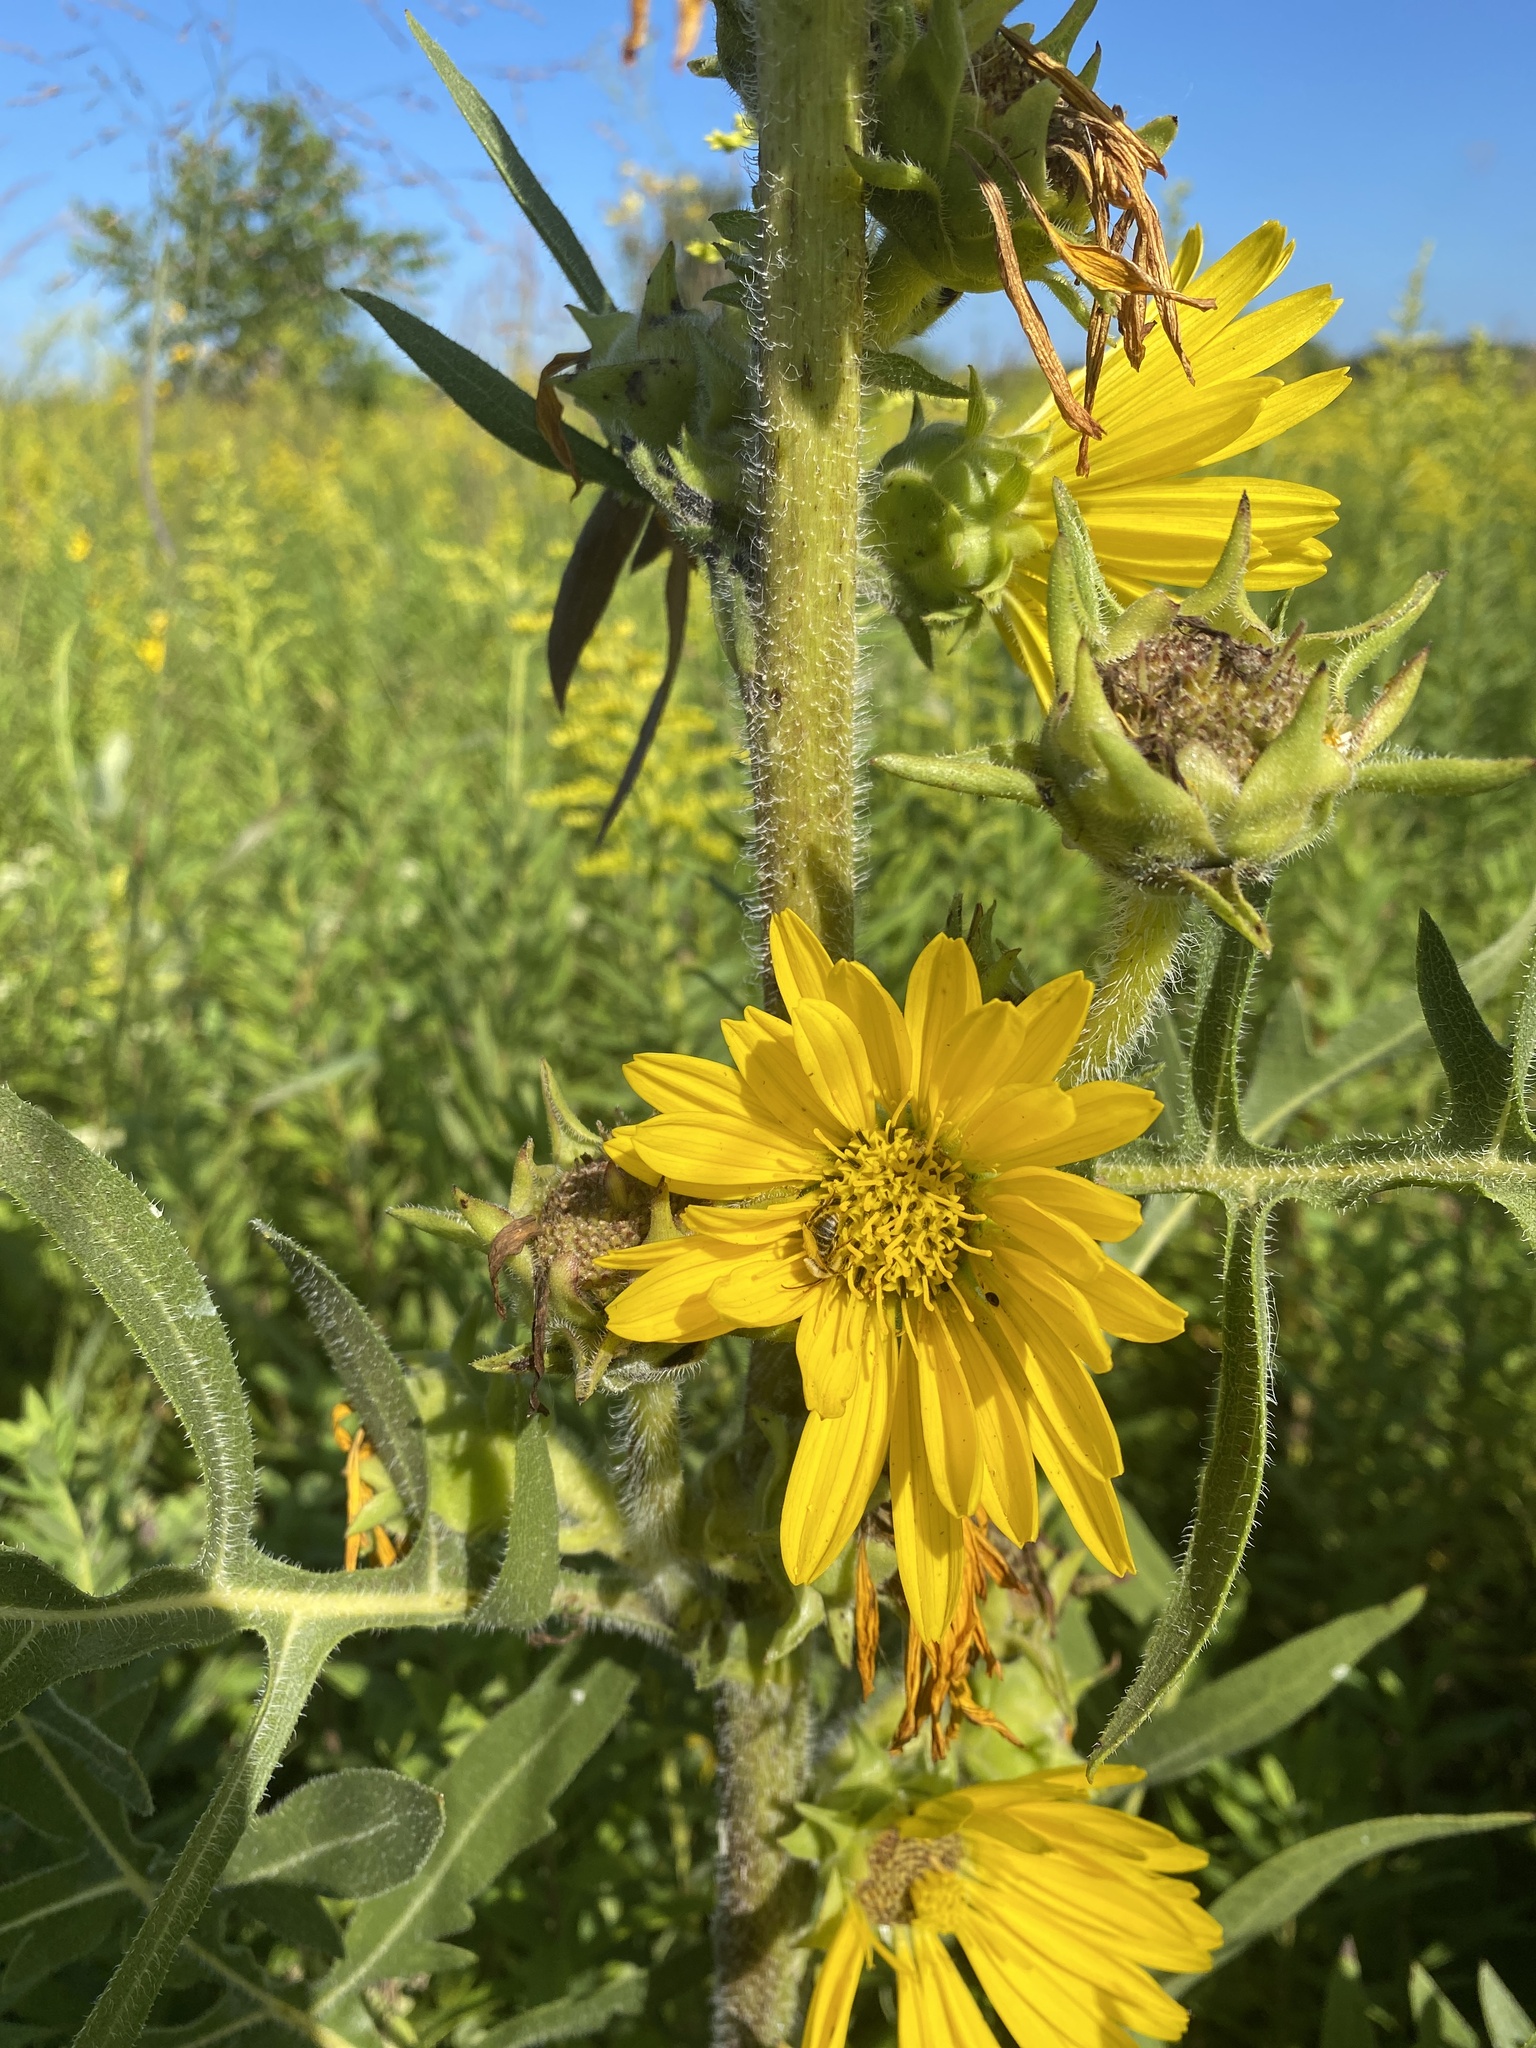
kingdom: Plantae
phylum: Tracheophyta
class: Magnoliopsida
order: Asterales
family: Asteraceae
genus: Silphium
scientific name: Silphium laciniatum
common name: Polarplant
